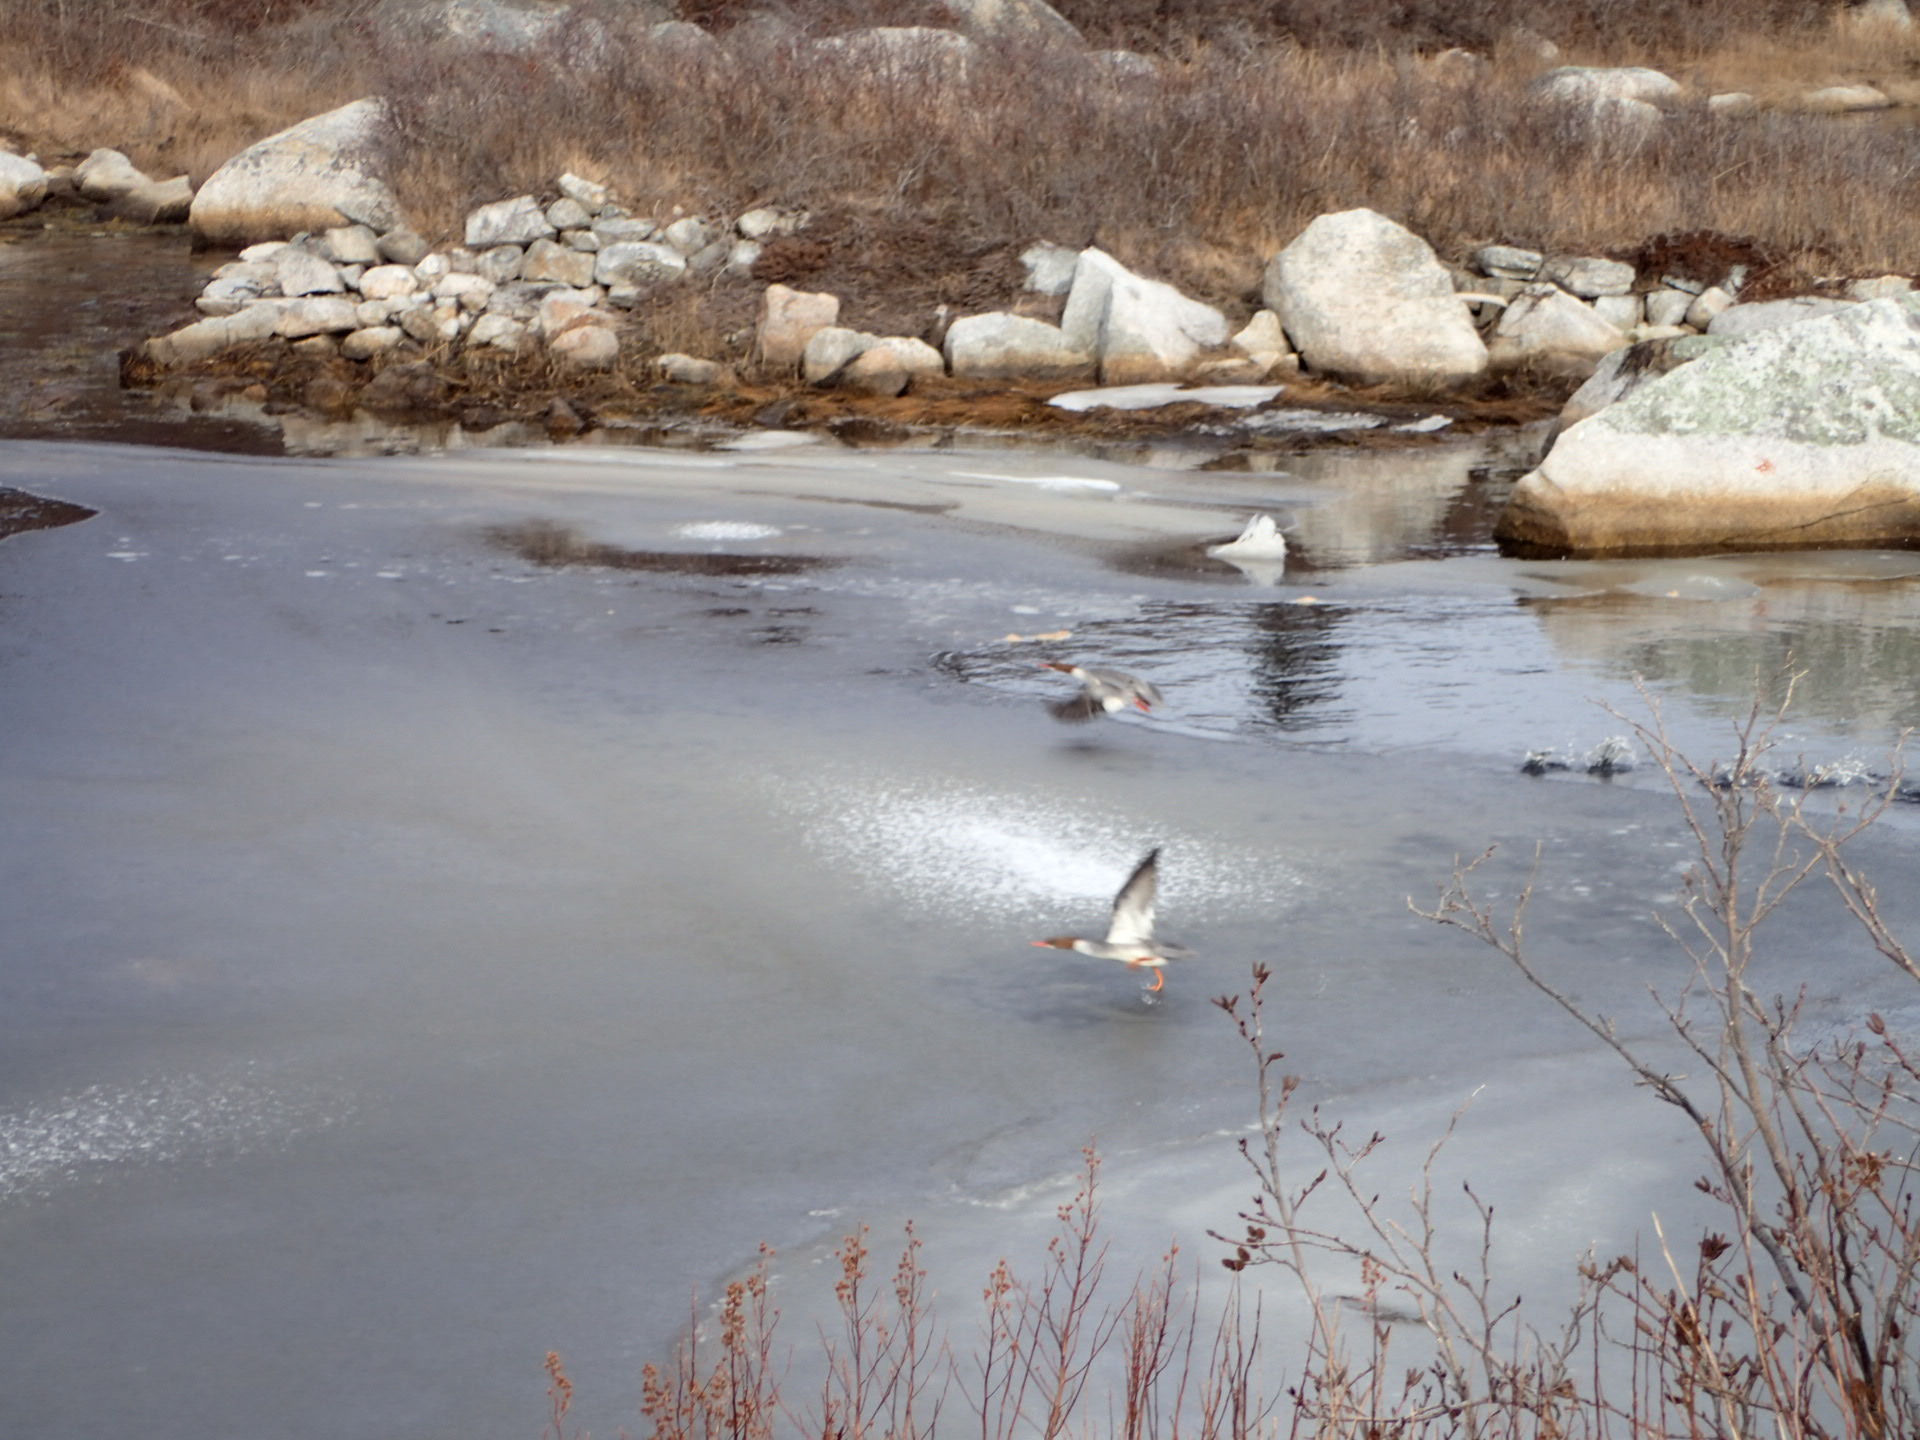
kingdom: Animalia
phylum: Chordata
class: Aves
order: Anseriformes
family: Anatidae
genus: Mergus
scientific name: Mergus merganser
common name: Common merganser
